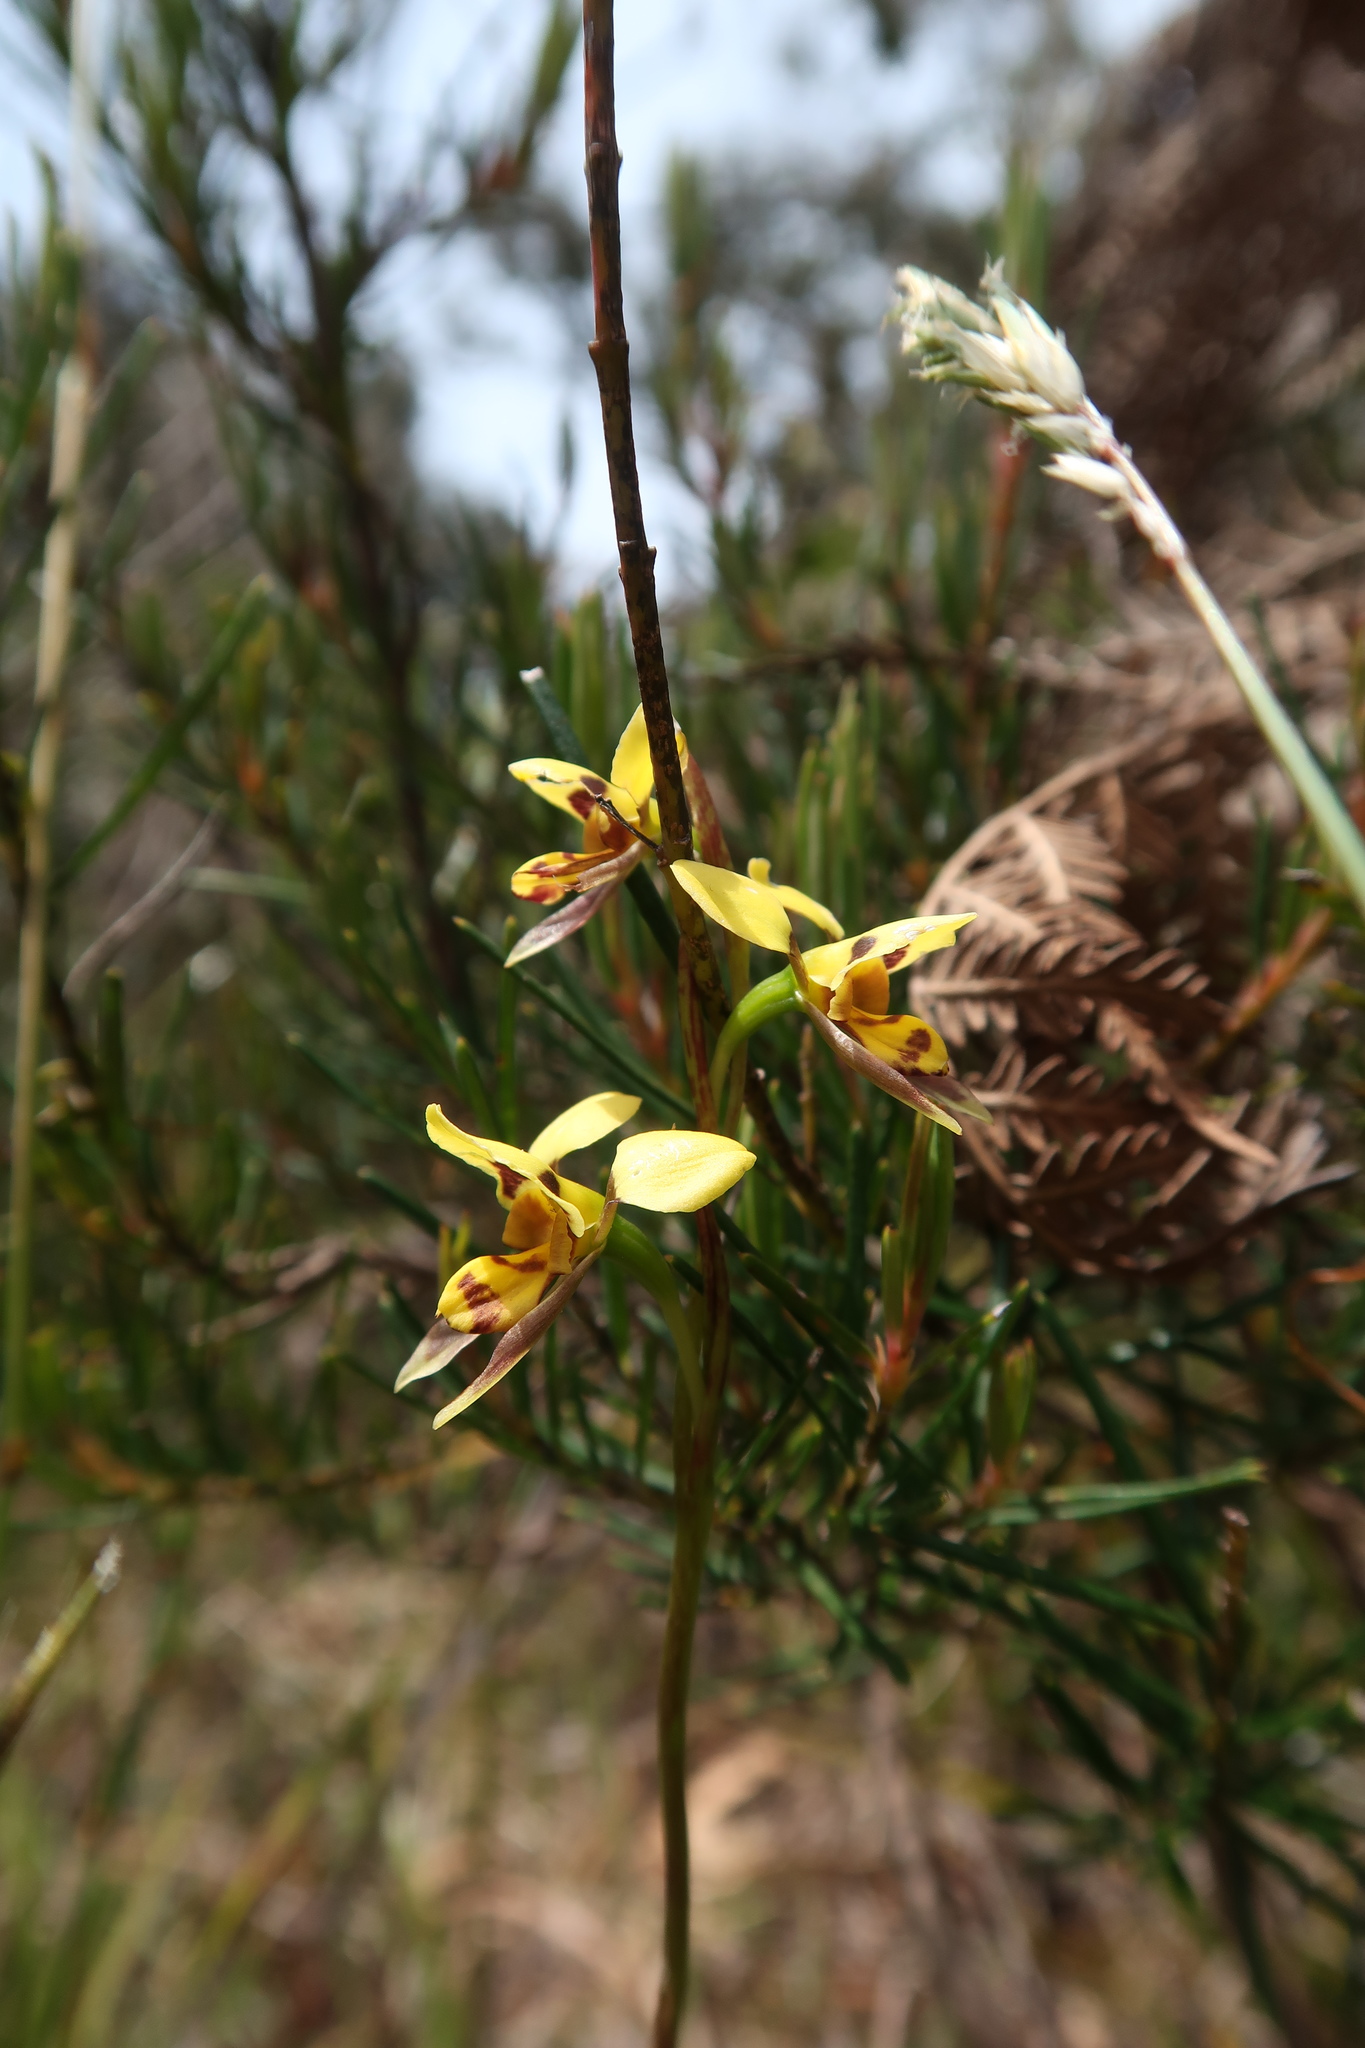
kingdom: Plantae
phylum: Tracheophyta
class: Liliopsida
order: Asparagales
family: Orchidaceae
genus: Diuris
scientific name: Diuris sulphurea
